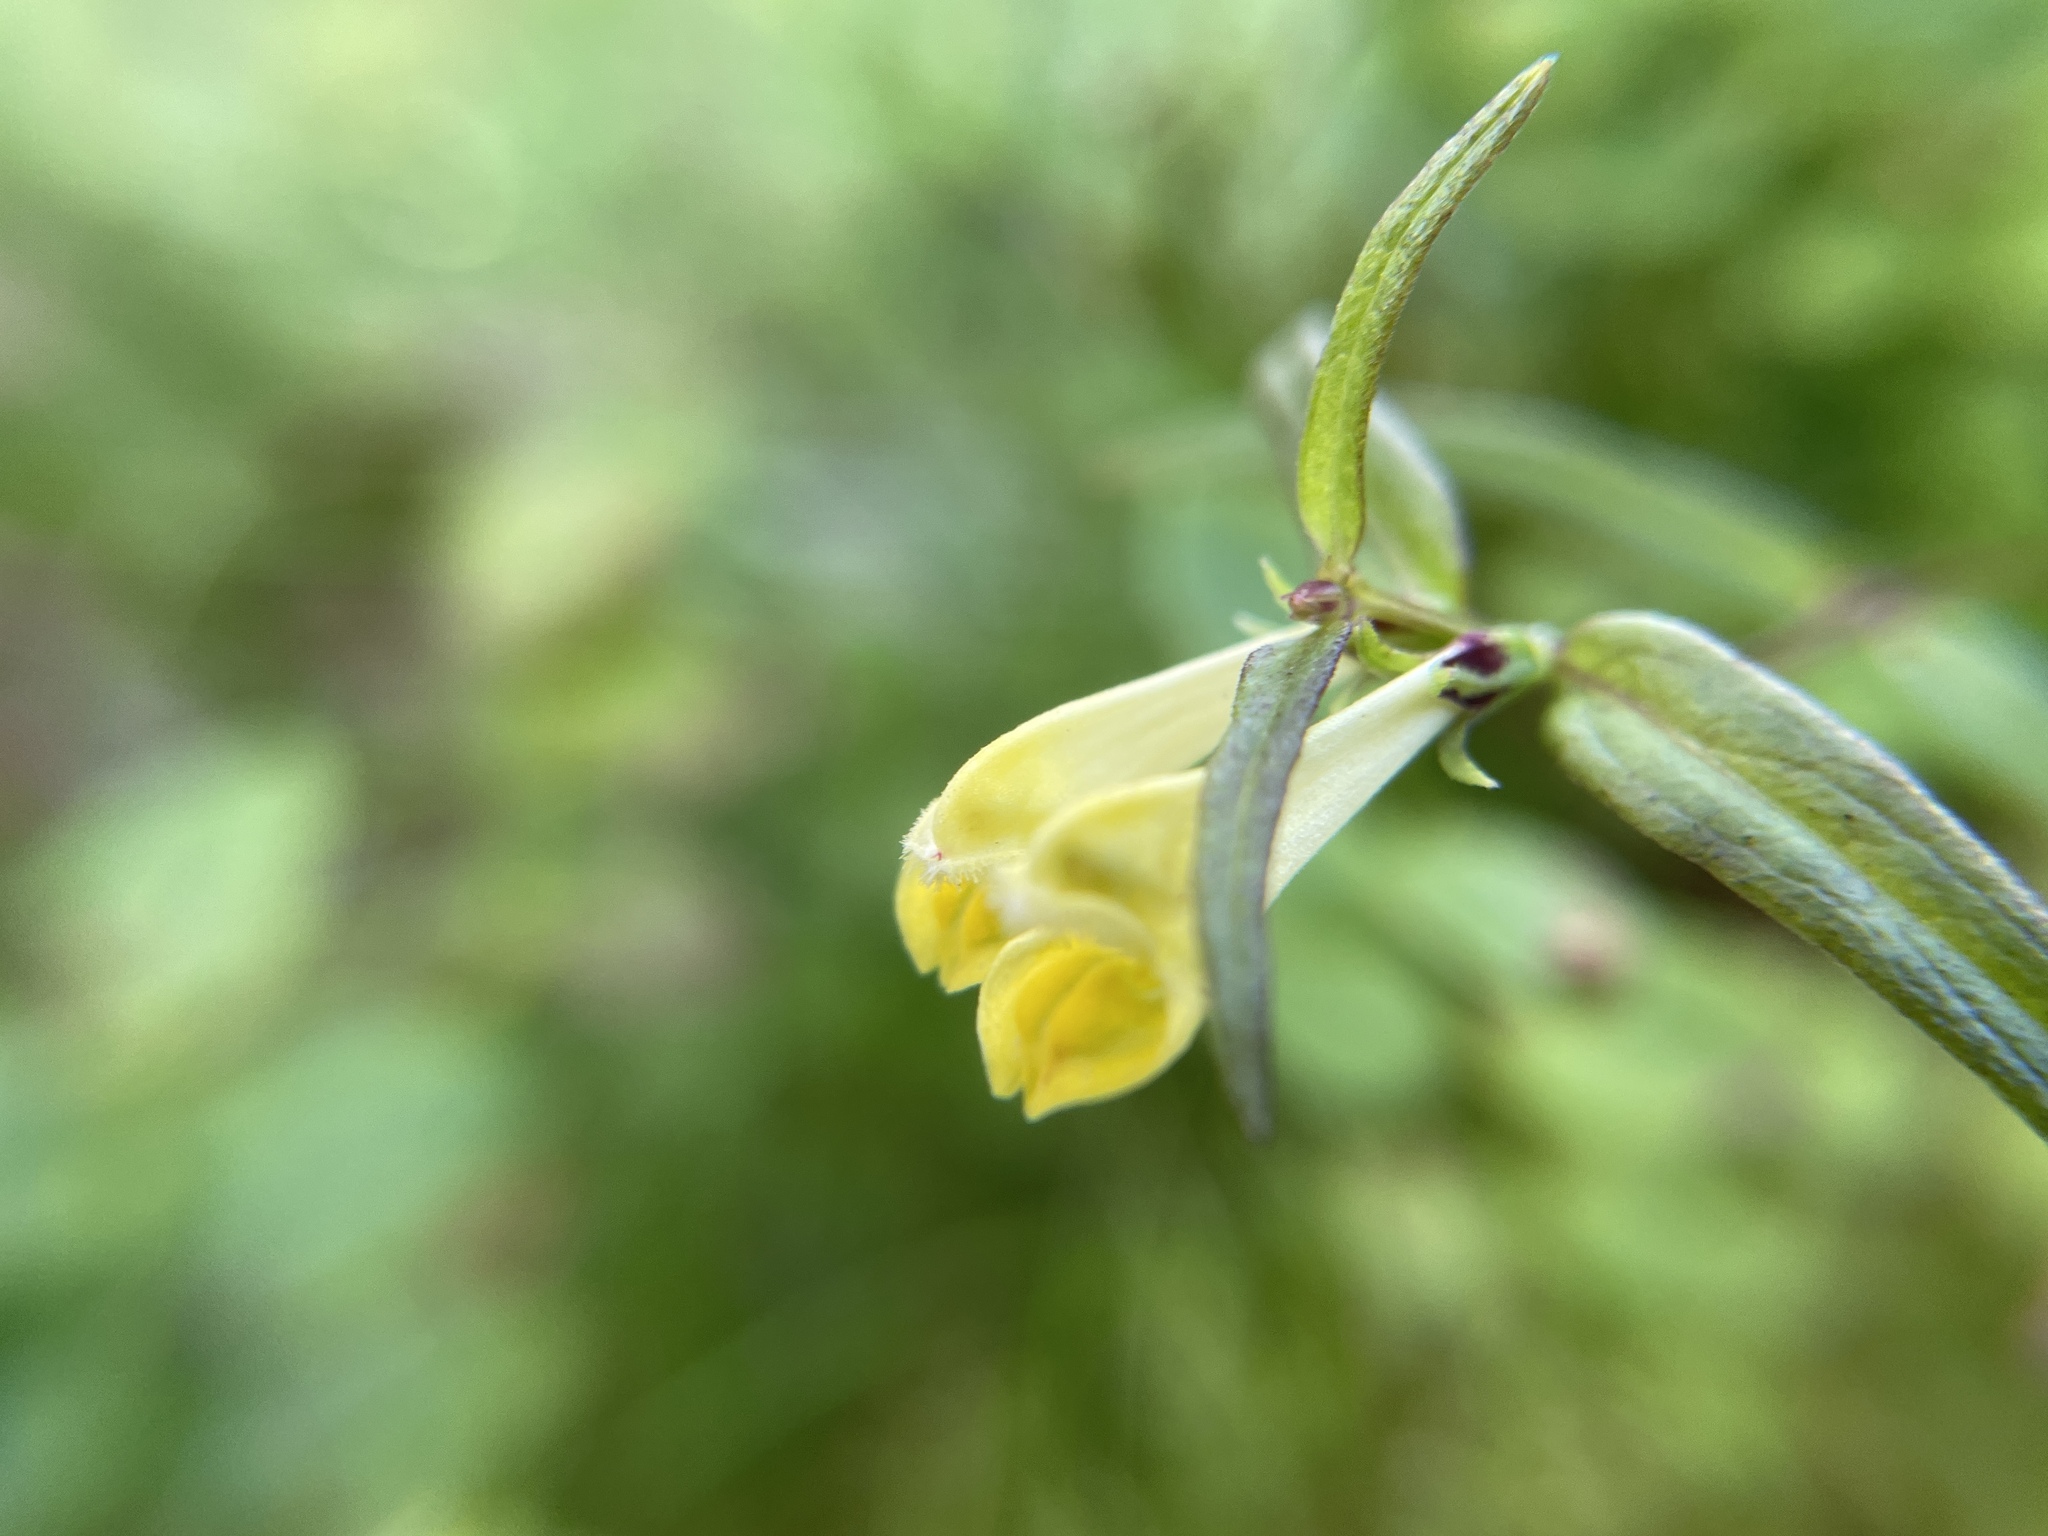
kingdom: Plantae
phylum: Tracheophyta
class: Magnoliopsida
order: Lamiales
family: Orobanchaceae
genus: Melampyrum
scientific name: Melampyrum pratense
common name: Common cow-wheat
